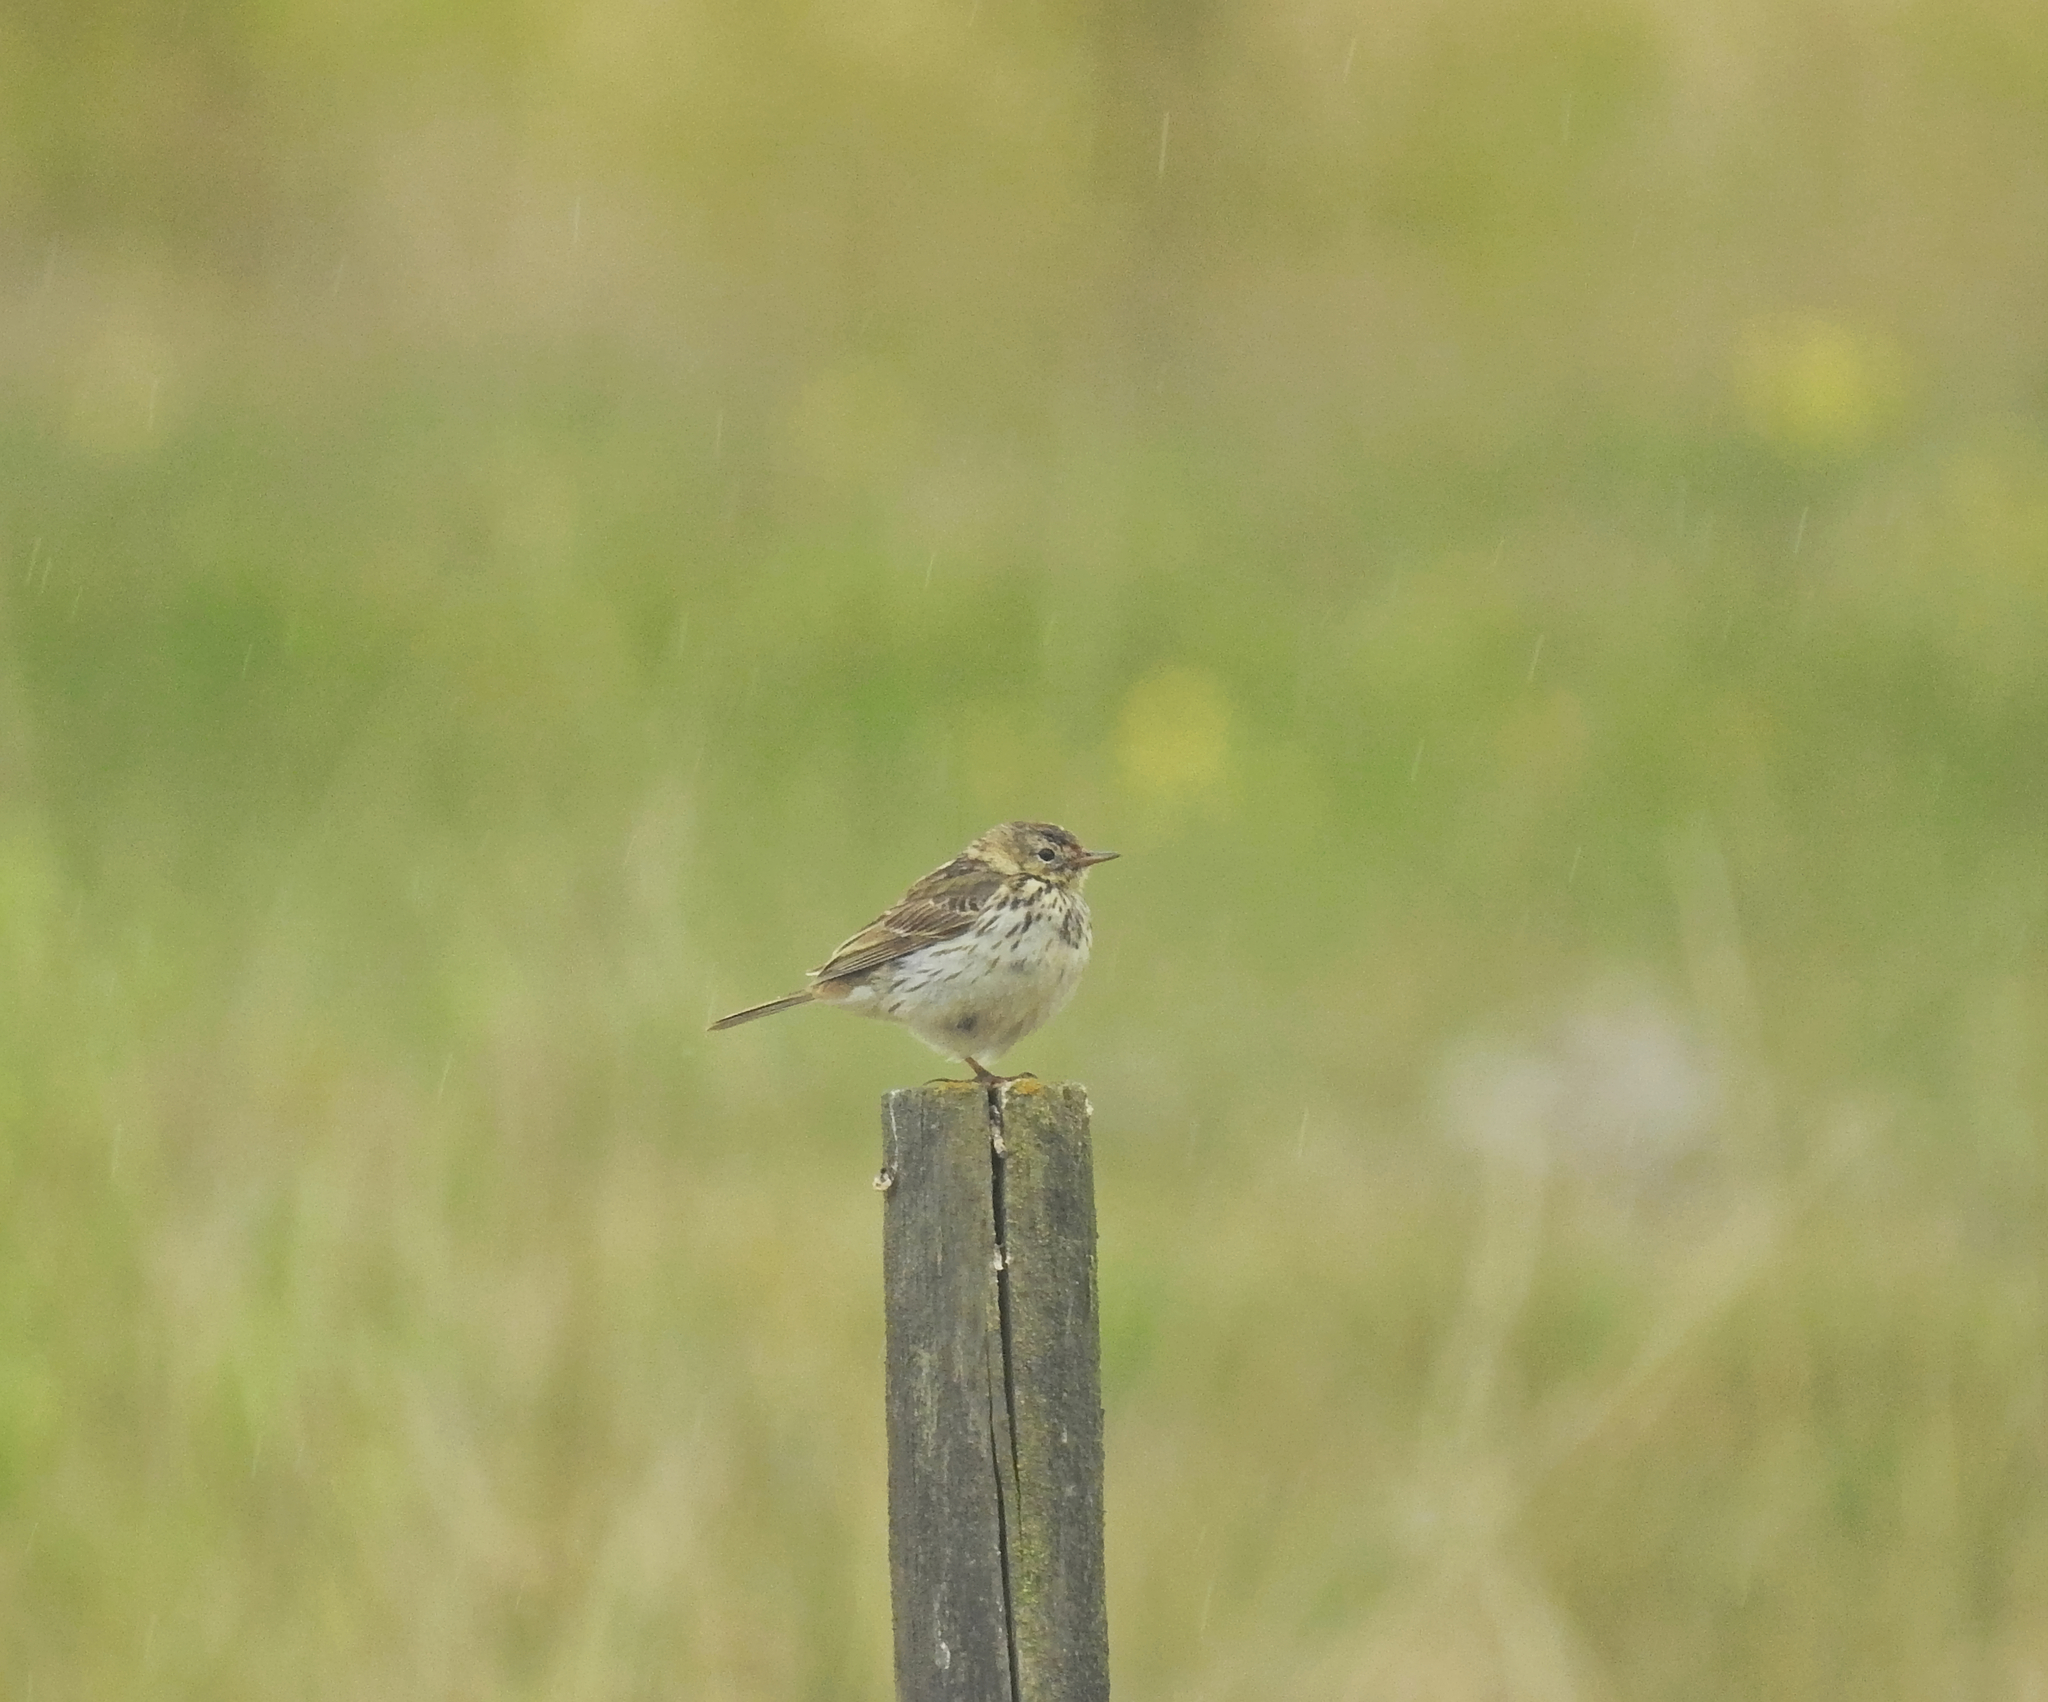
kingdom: Animalia
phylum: Chordata
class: Aves
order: Passeriformes
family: Motacillidae
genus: Anthus
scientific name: Anthus pratensis
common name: Meadow pipit
